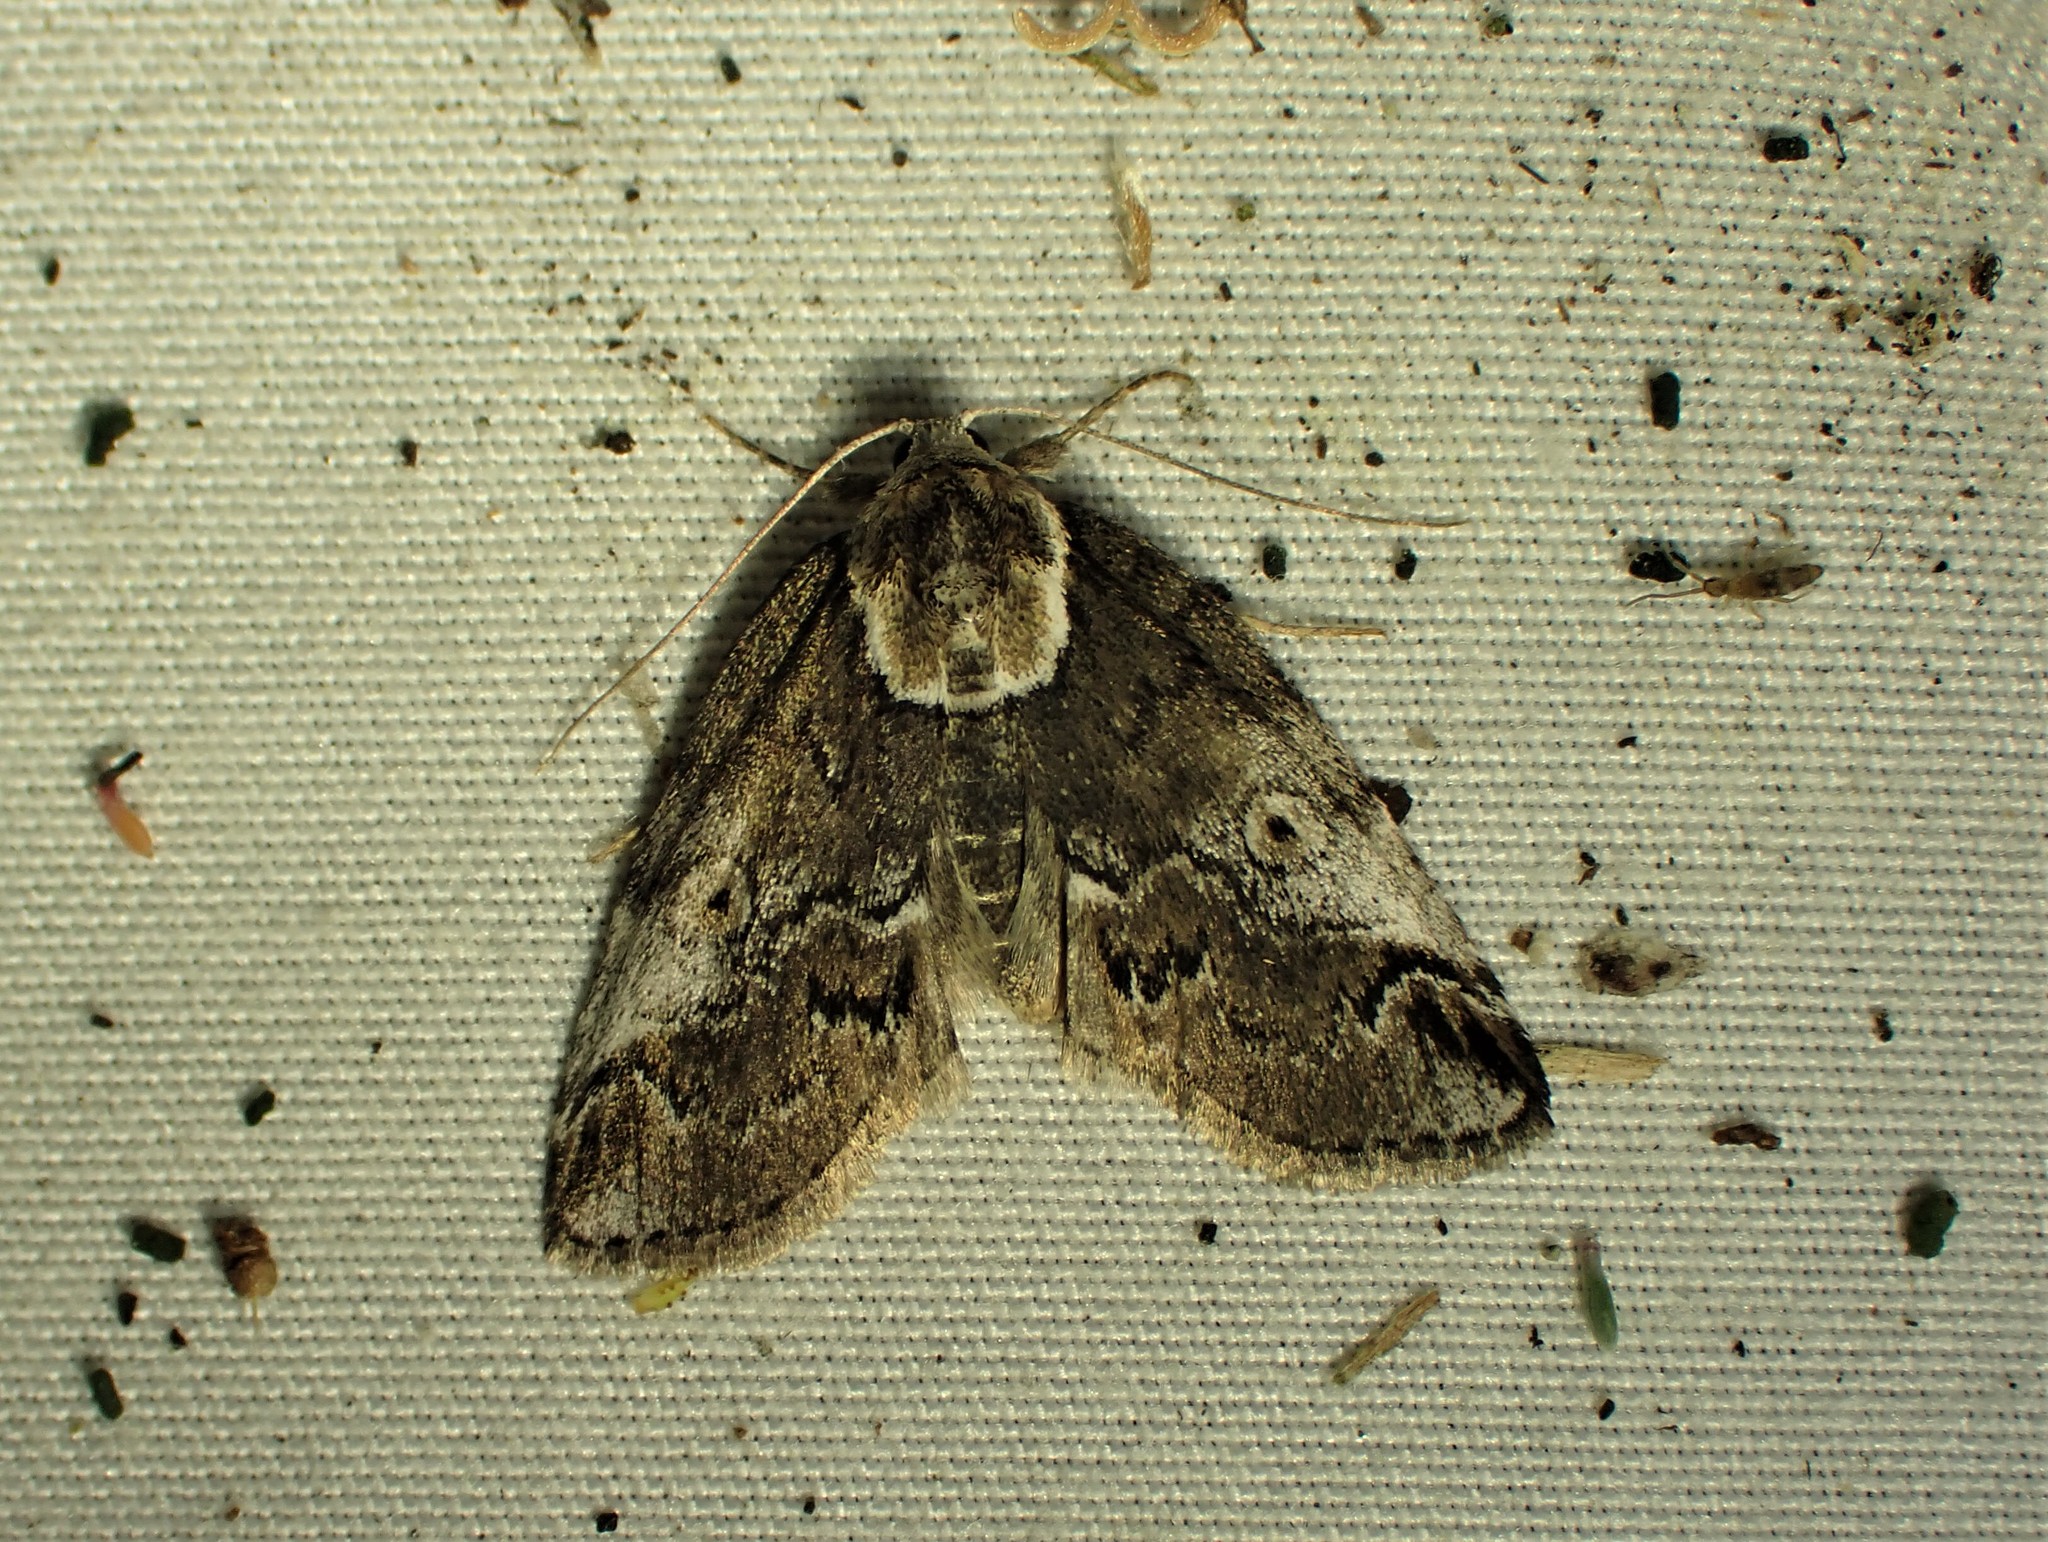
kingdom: Animalia
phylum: Arthropoda
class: Insecta
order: Lepidoptera
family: Nolidae
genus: Baileya
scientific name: Baileya ophthalmica
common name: Eyed baileya moth
